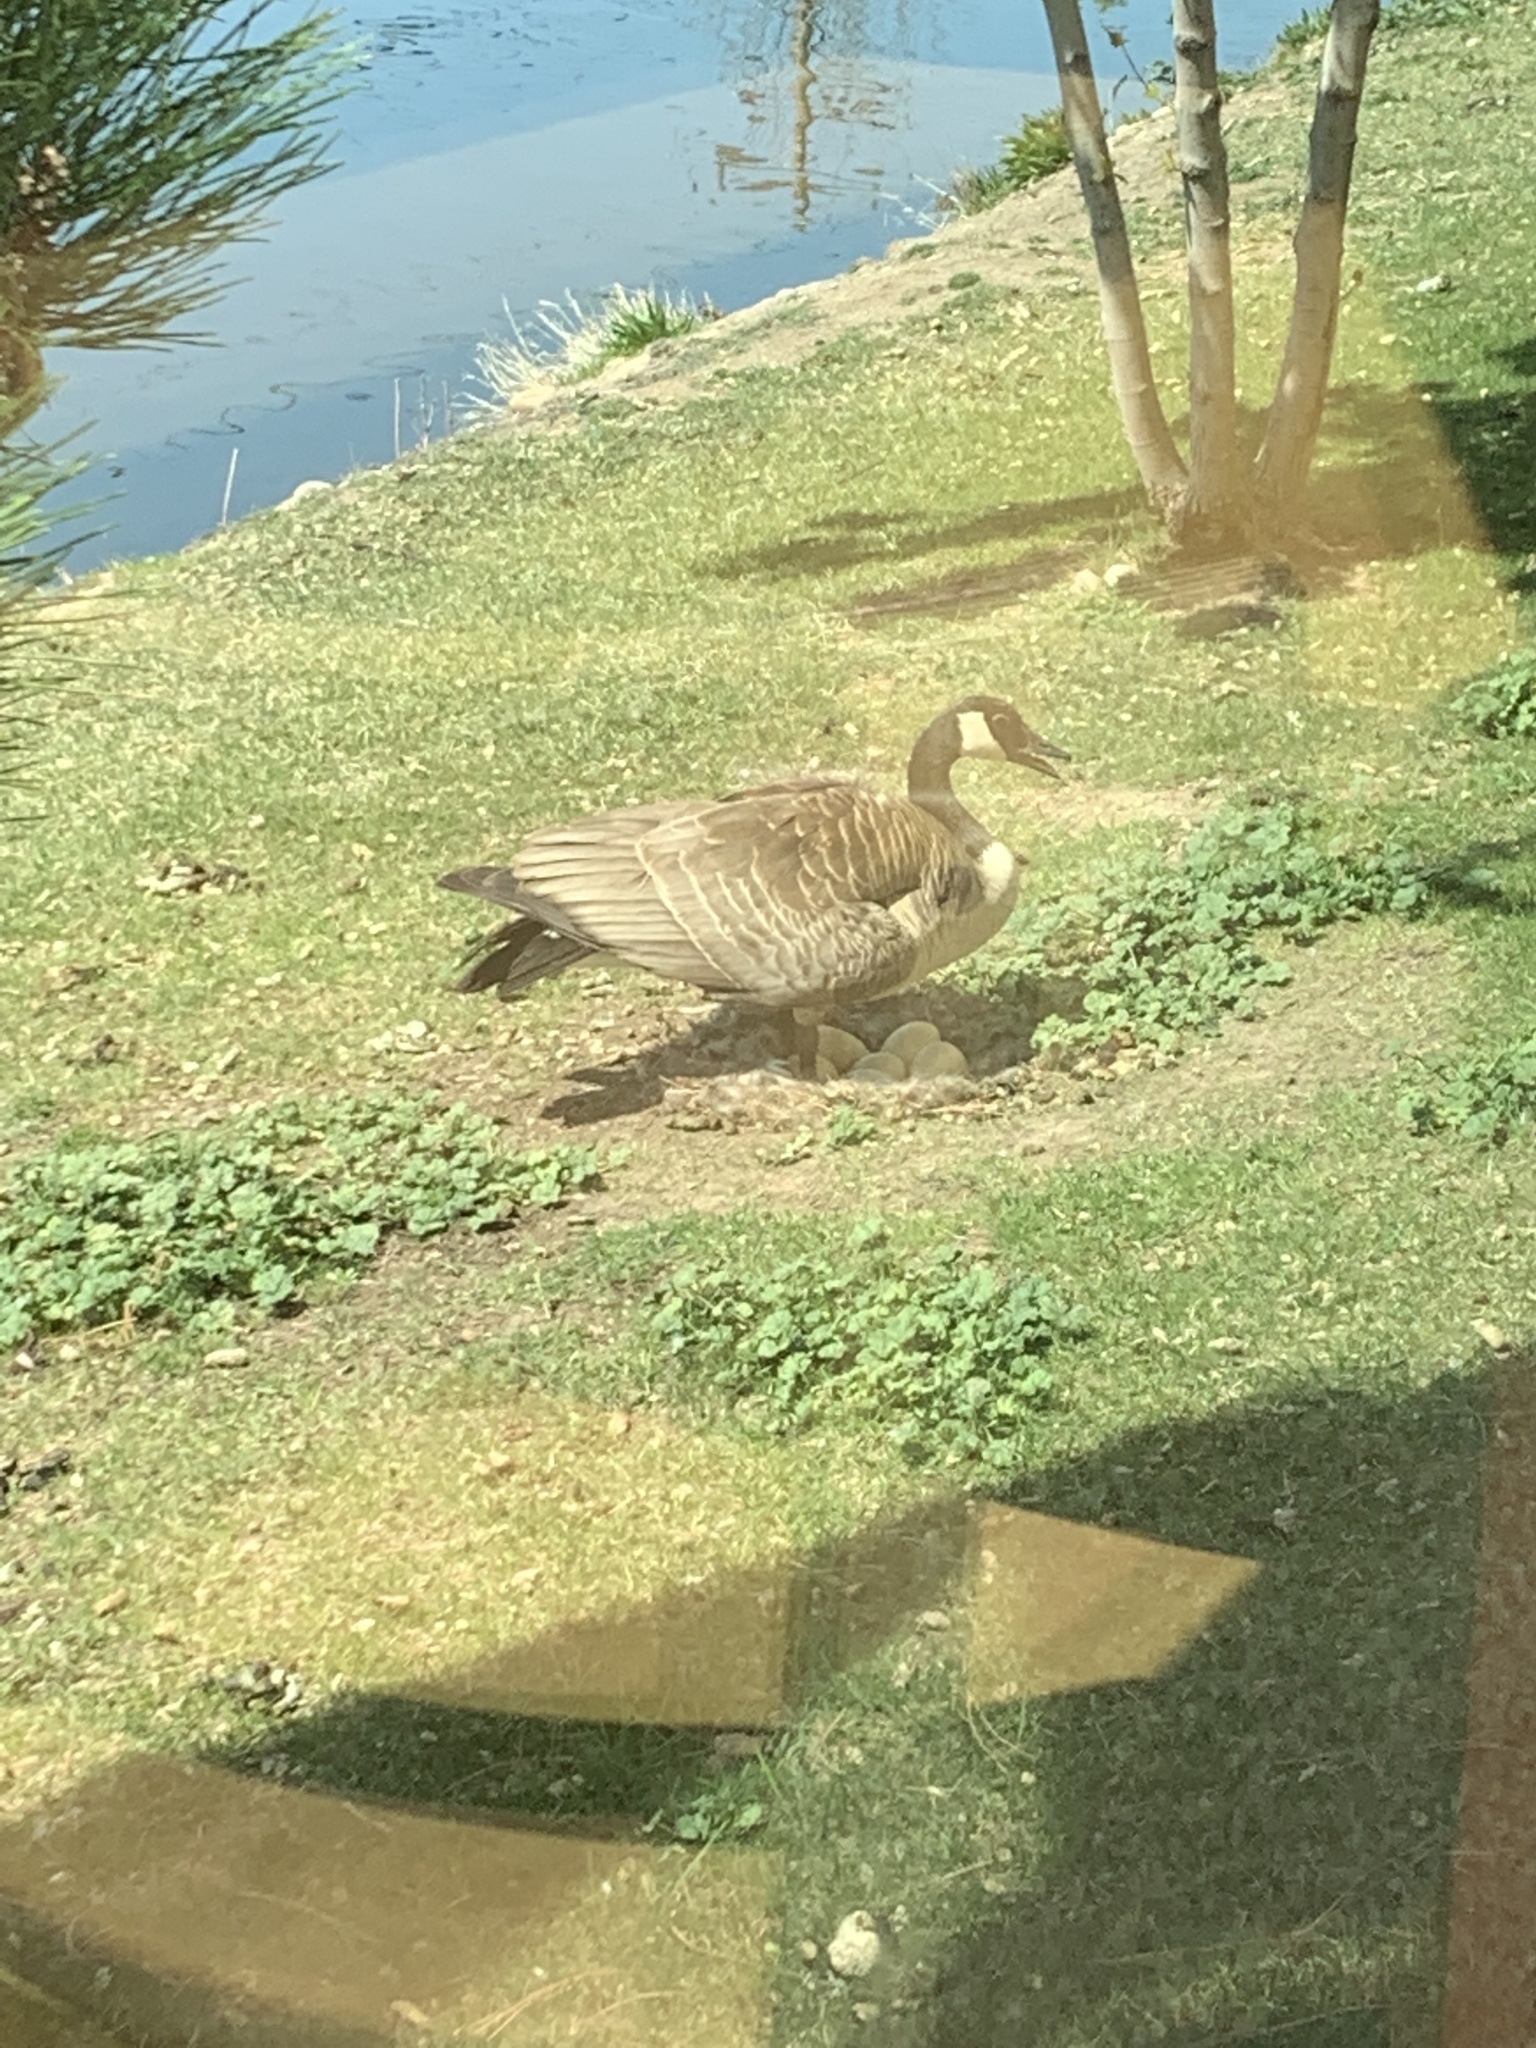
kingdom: Animalia
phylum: Chordata
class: Aves
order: Anseriformes
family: Anatidae
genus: Branta
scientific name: Branta canadensis
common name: Canada goose
